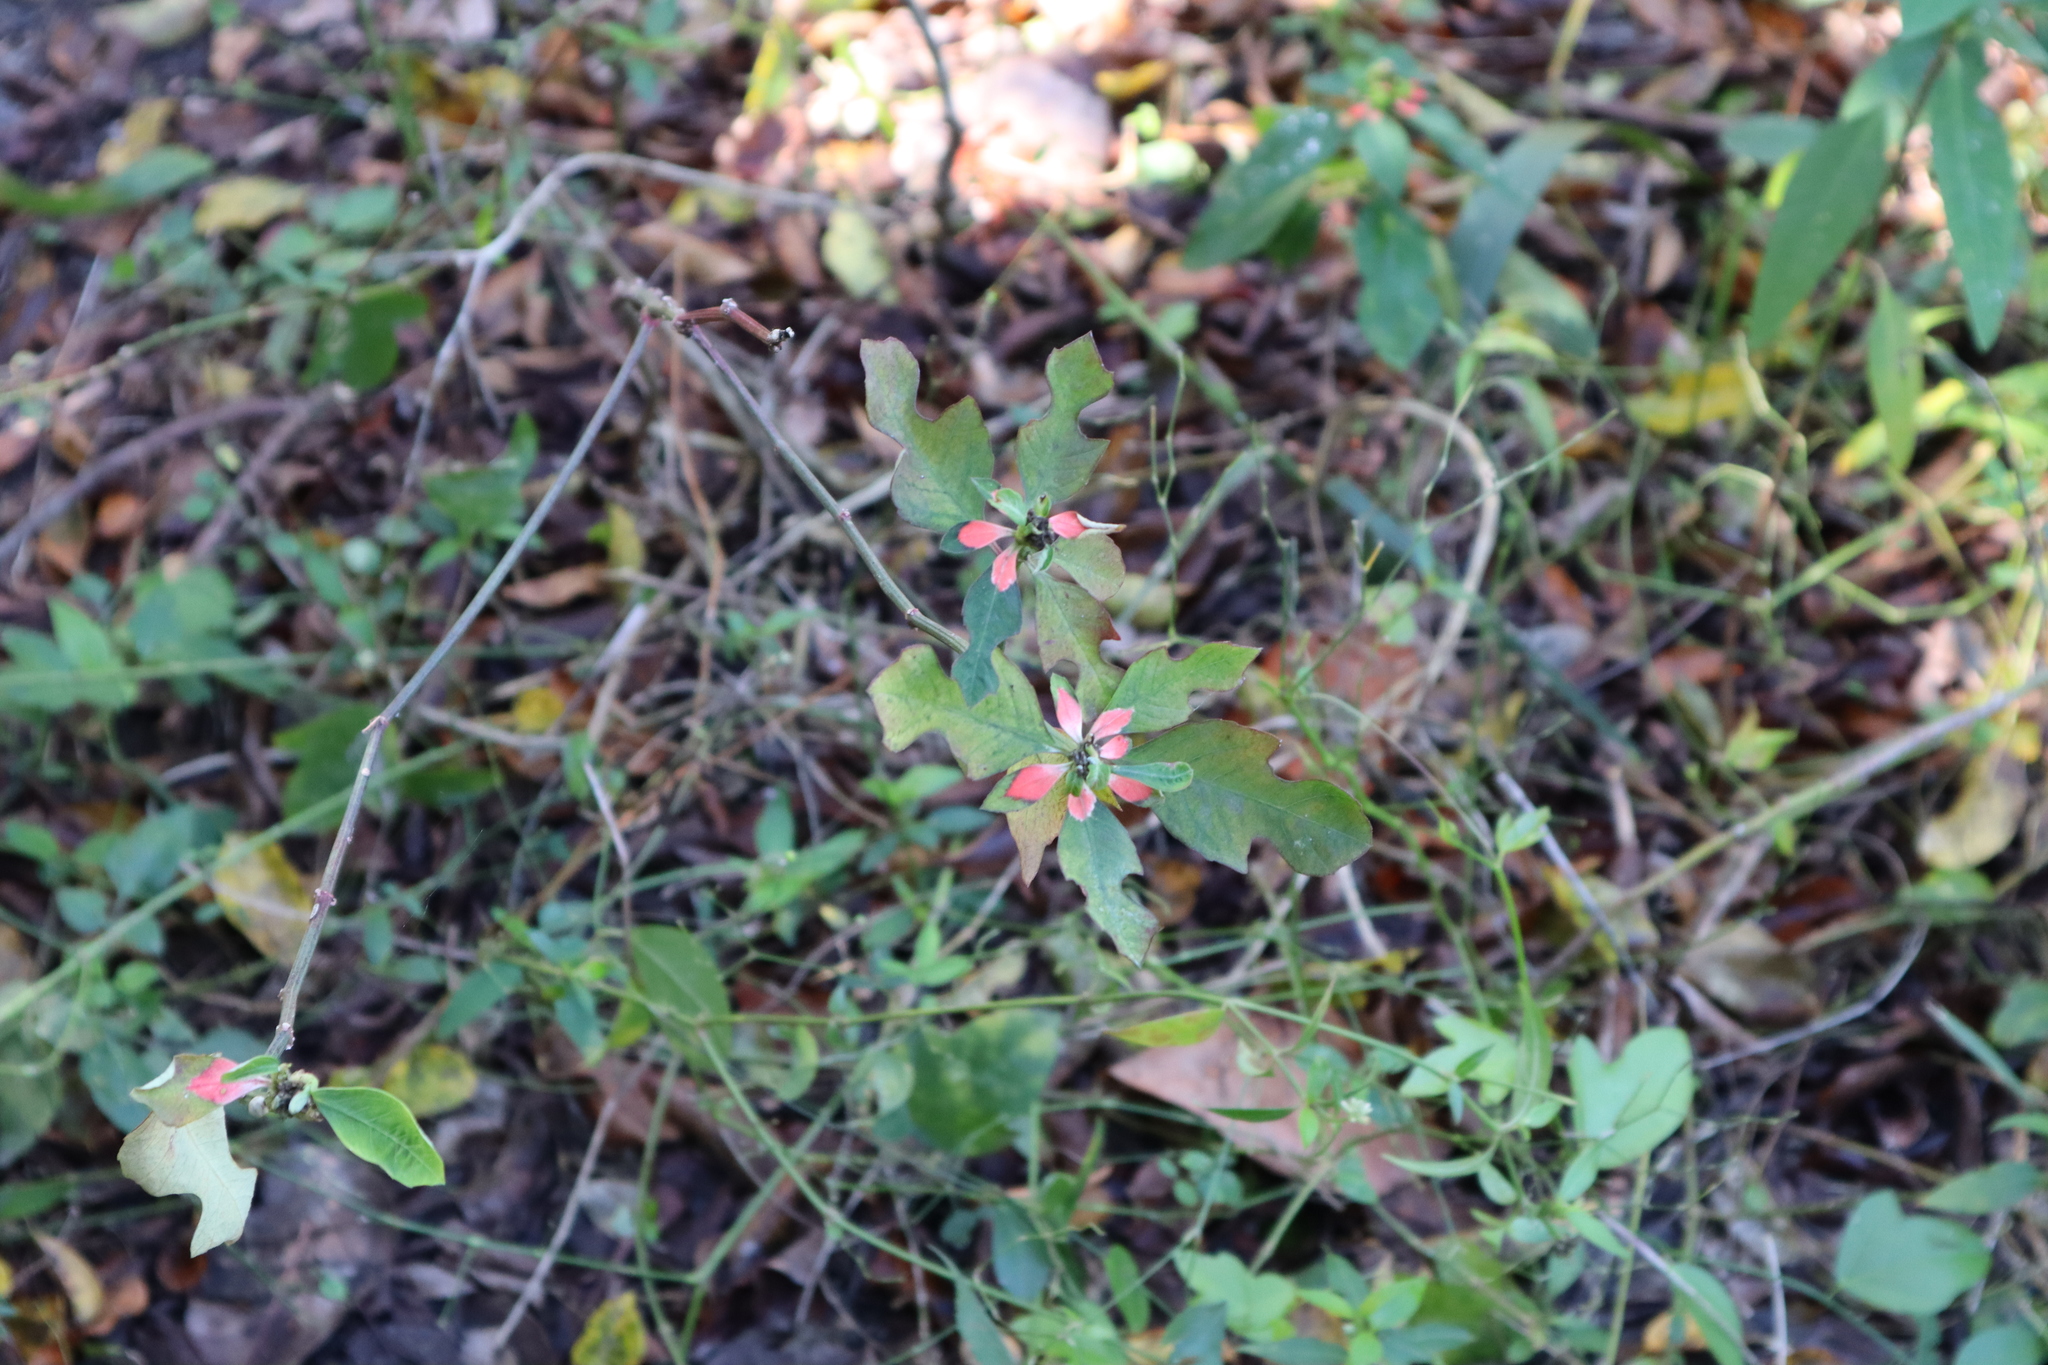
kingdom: Plantae
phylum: Tracheophyta
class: Magnoliopsida
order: Malpighiales
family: Euphorbiaceae
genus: Euphorbia
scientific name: Euphorbia heterophylla
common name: Mexican fireplant
